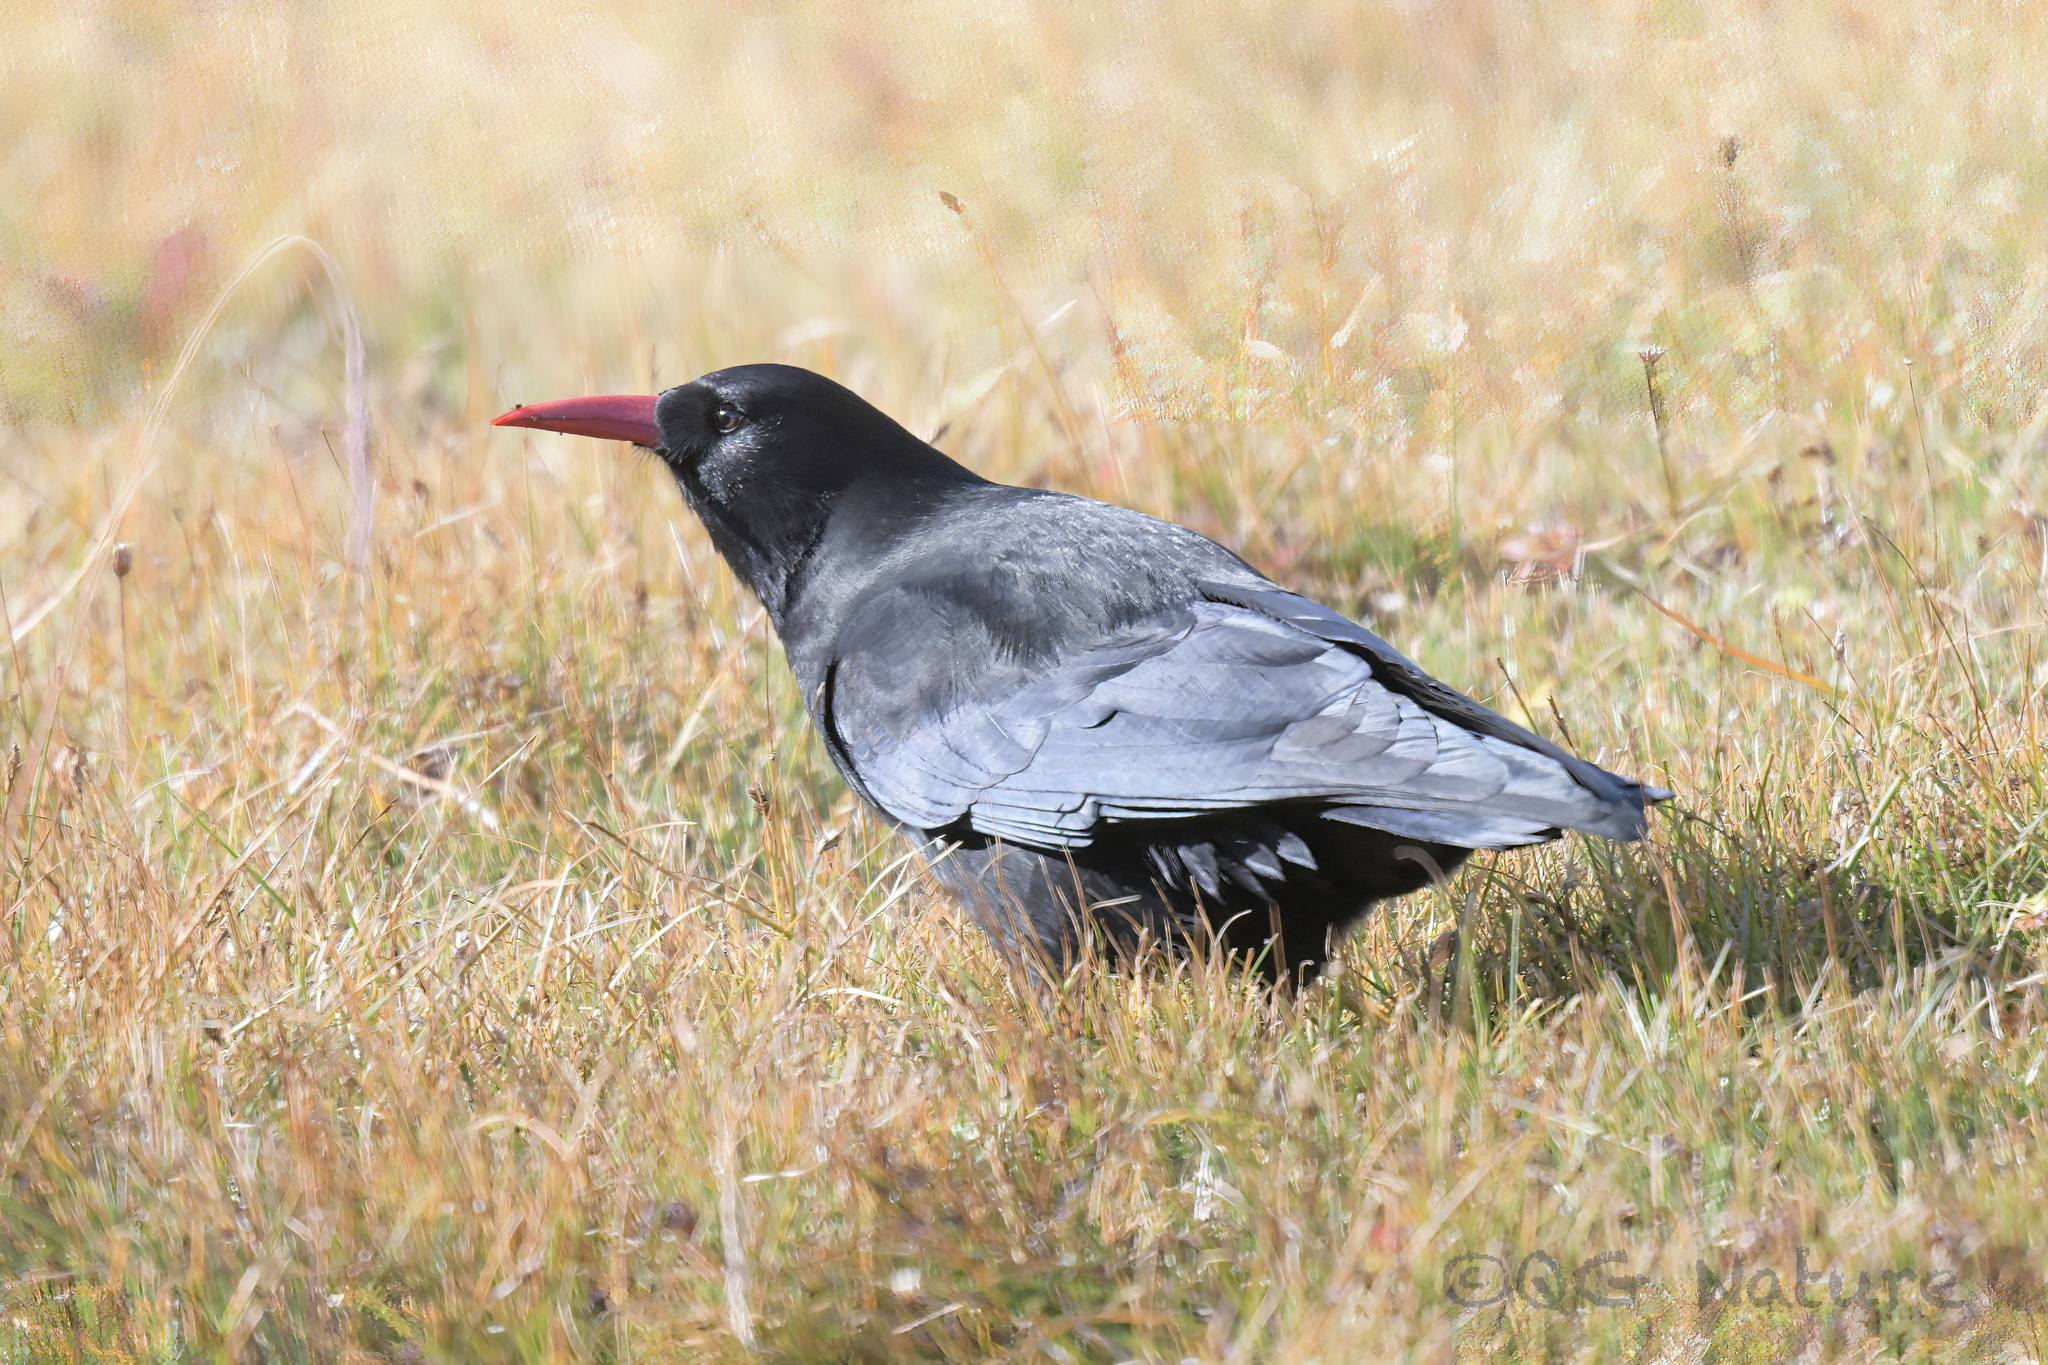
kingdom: Animalia
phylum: Chordata
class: Aves
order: Passeriformes
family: Corvidae
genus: Pyrrhocorax
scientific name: Pyrrhocorax pyrrhocorax
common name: Red-billed chough
